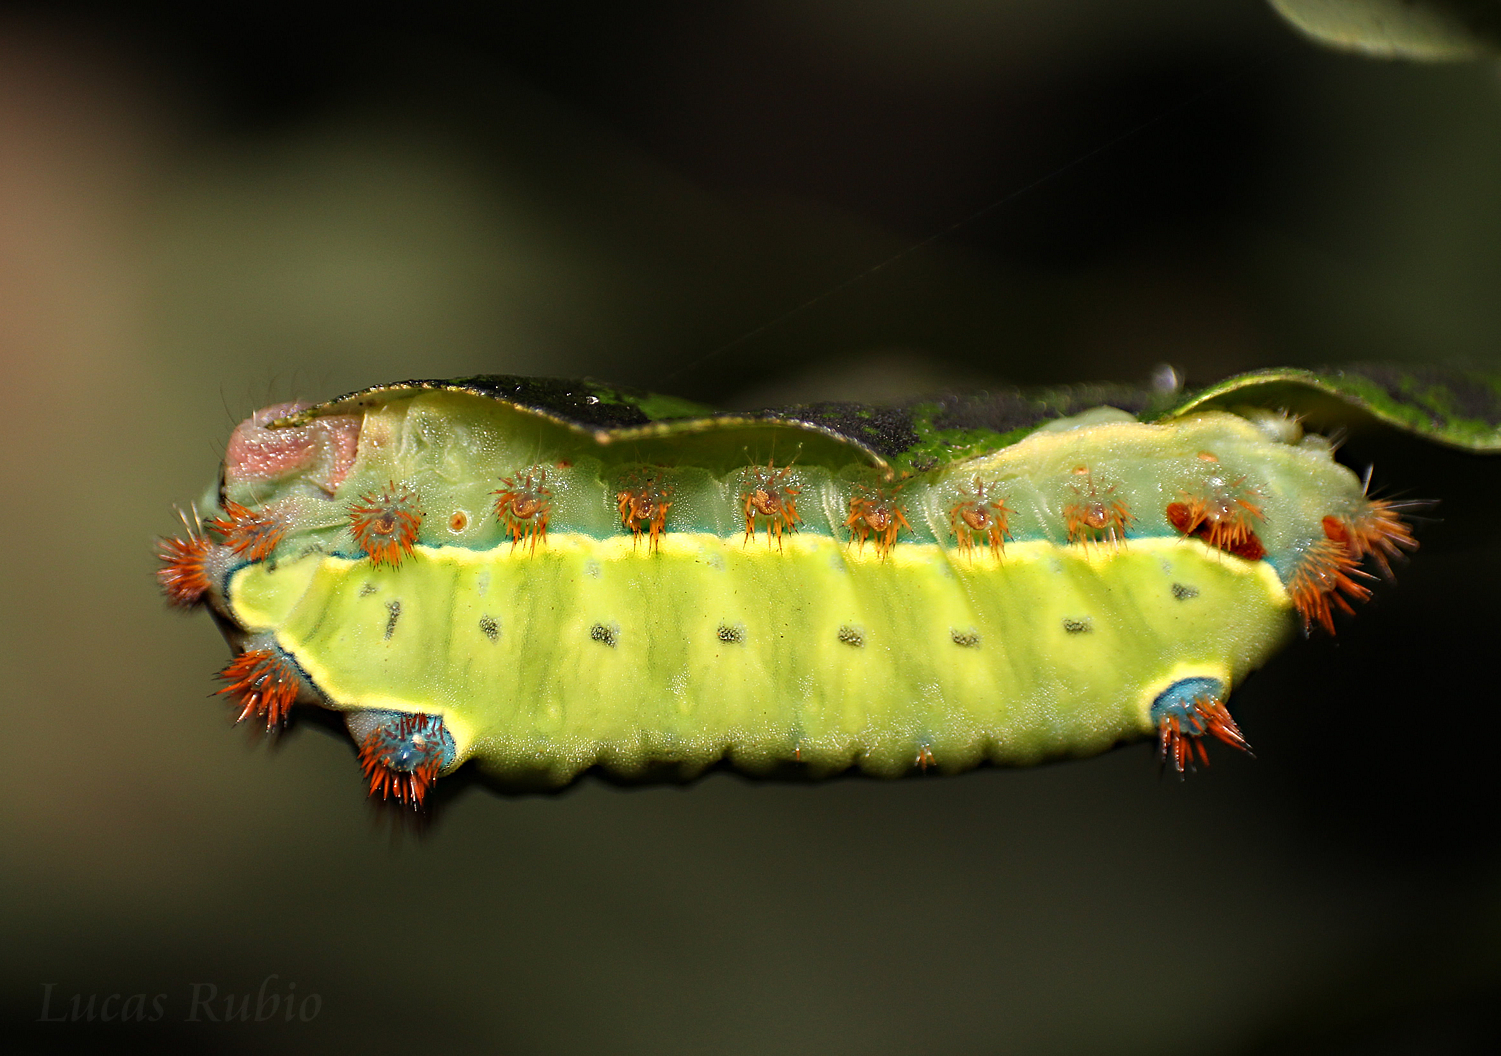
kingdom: Animalia
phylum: Arthropoda
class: Insecta
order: Lepidoptera
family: Limacodidae
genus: Acharia
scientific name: Acharia
